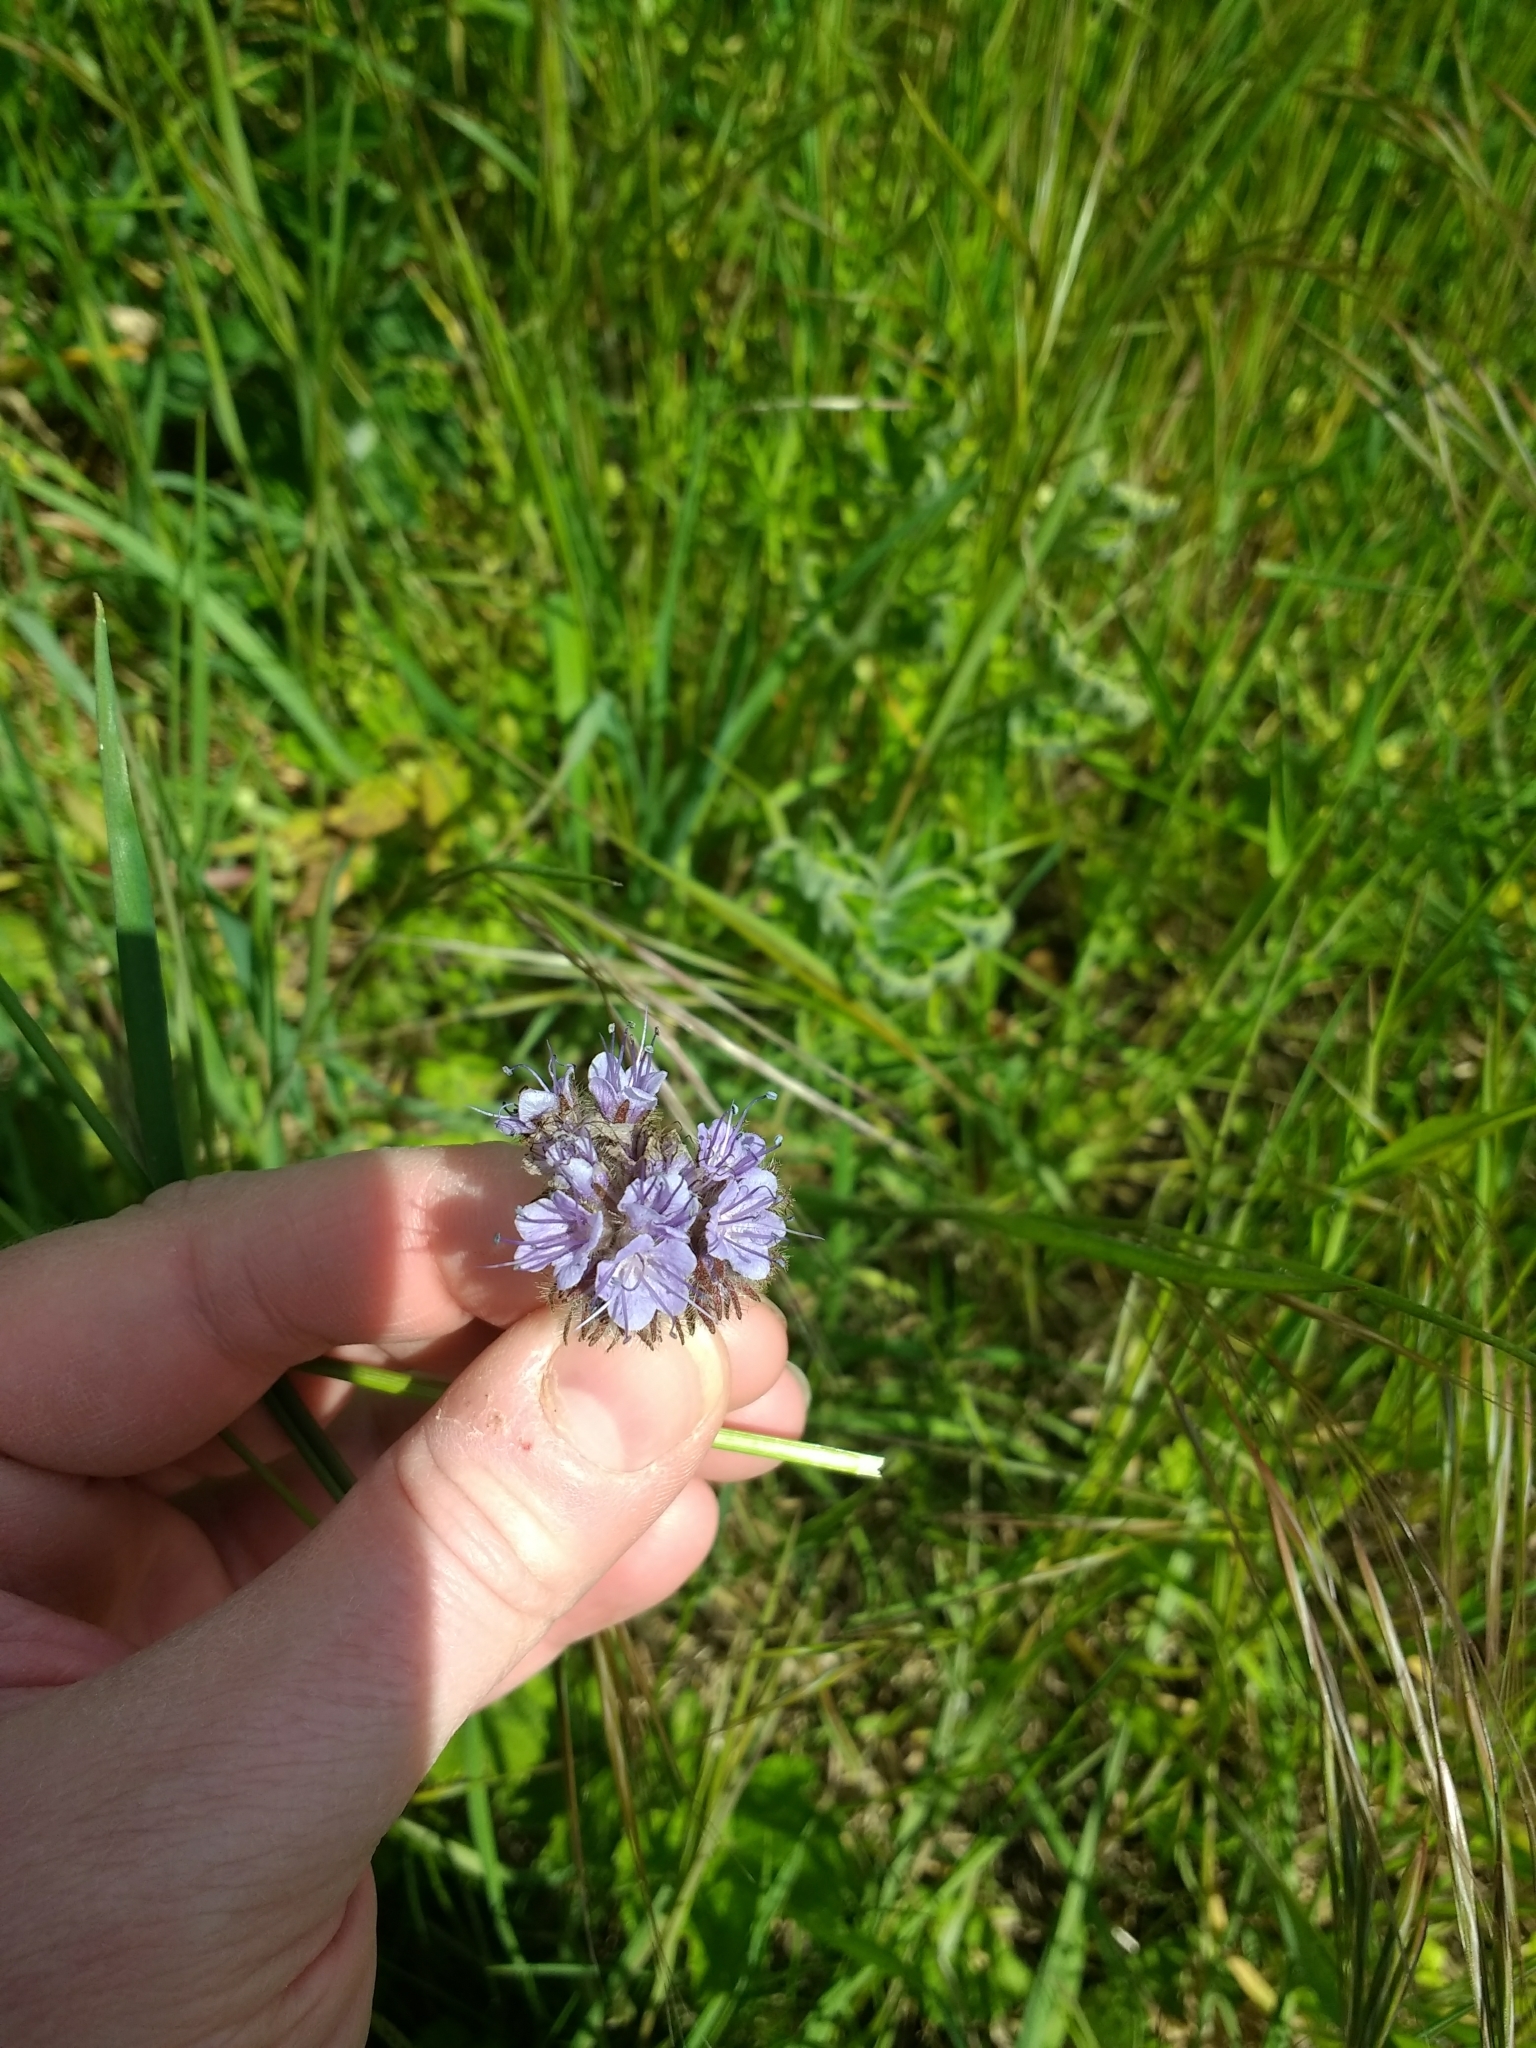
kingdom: Plantae
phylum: Tracheophyta
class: Magnoliopsida
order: Boraginales
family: Hydrophyllaceae
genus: Phacelia
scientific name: Phacelia tanacetifolia
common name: Phacelia
